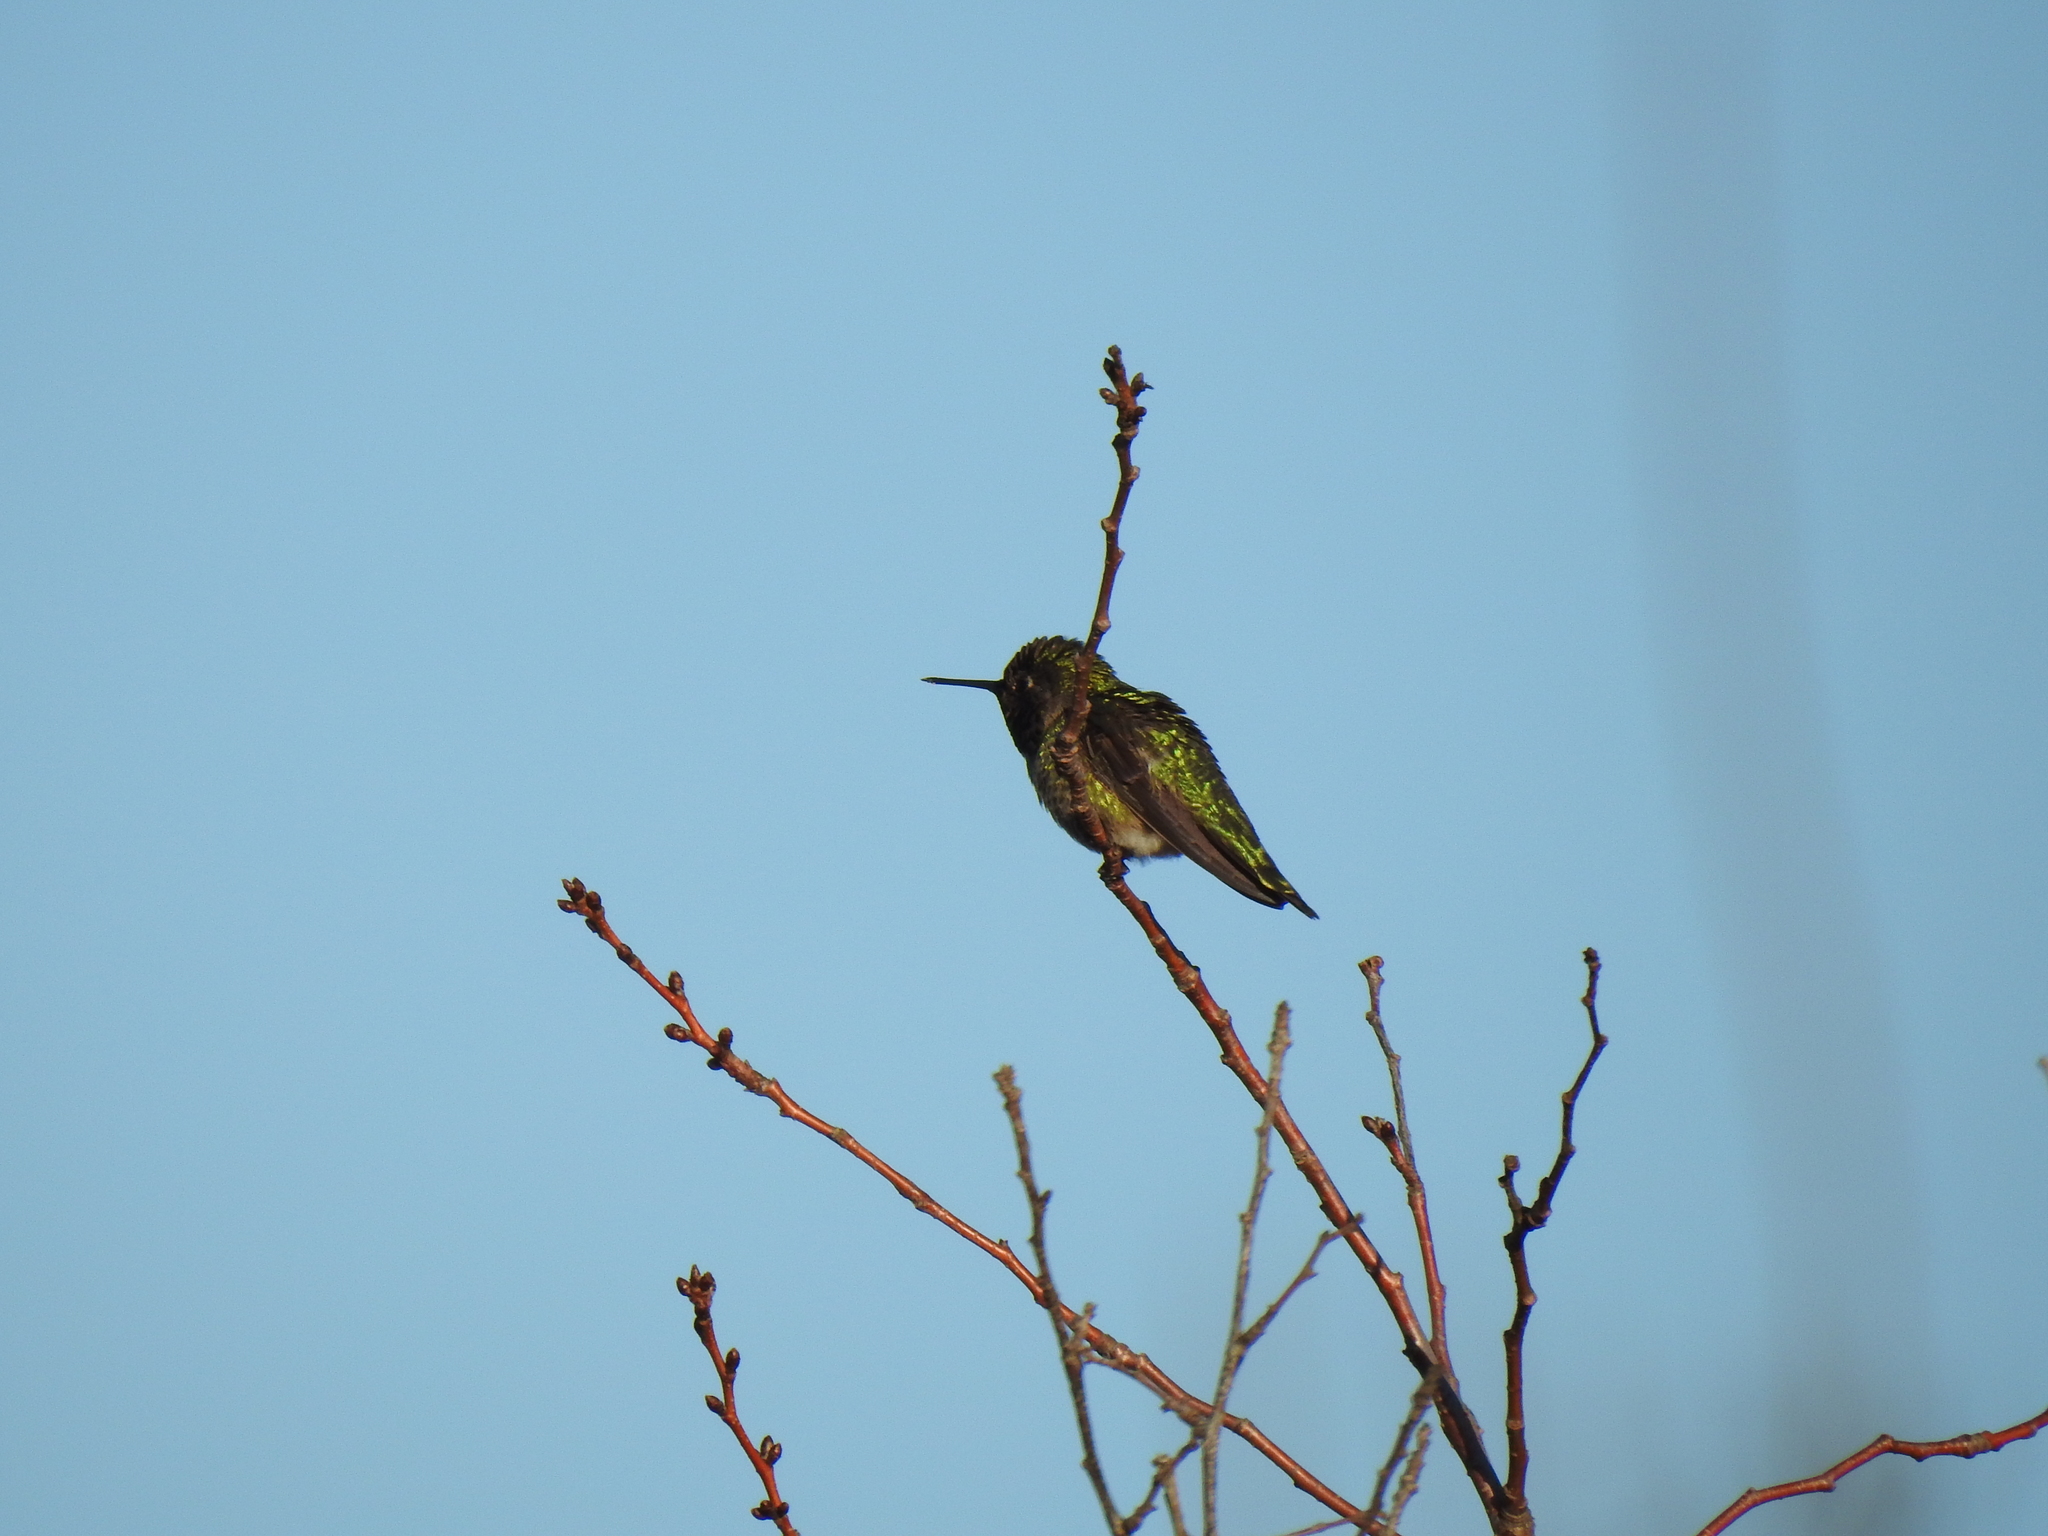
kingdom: Animalia
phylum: Chordata
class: Aves
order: Apodiformes
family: Trochilidae
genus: Calypte
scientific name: Calypte anna
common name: Anna's hummingbird
